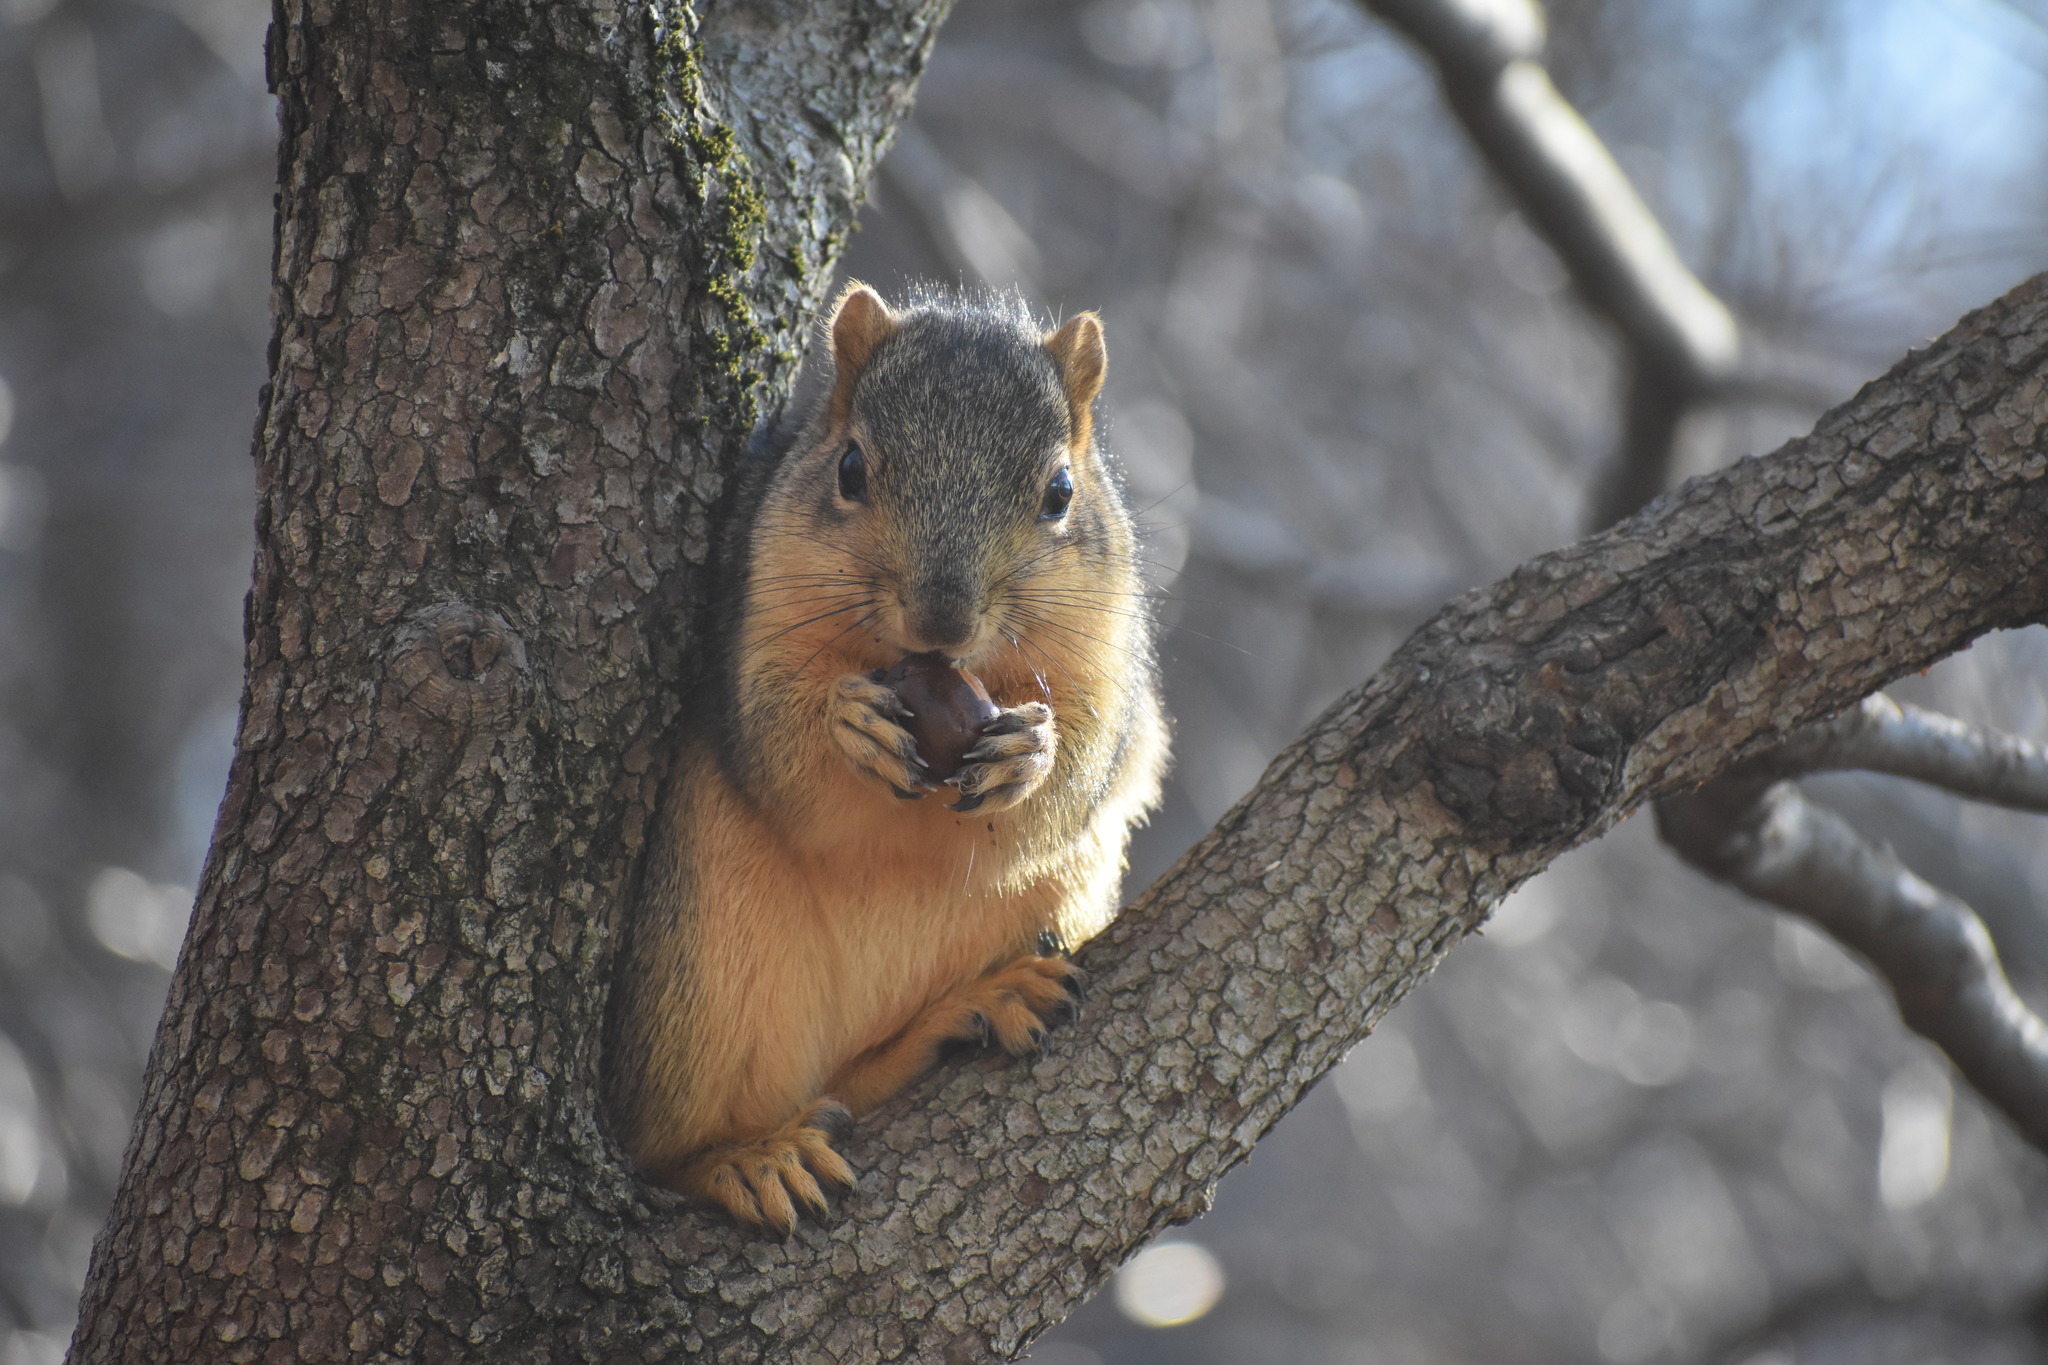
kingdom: Animalia
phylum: Chordata
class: Mammalia
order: Rodentia
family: Sciuridae
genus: Sciurus
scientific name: Sciurus niger
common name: Fox squirrel
